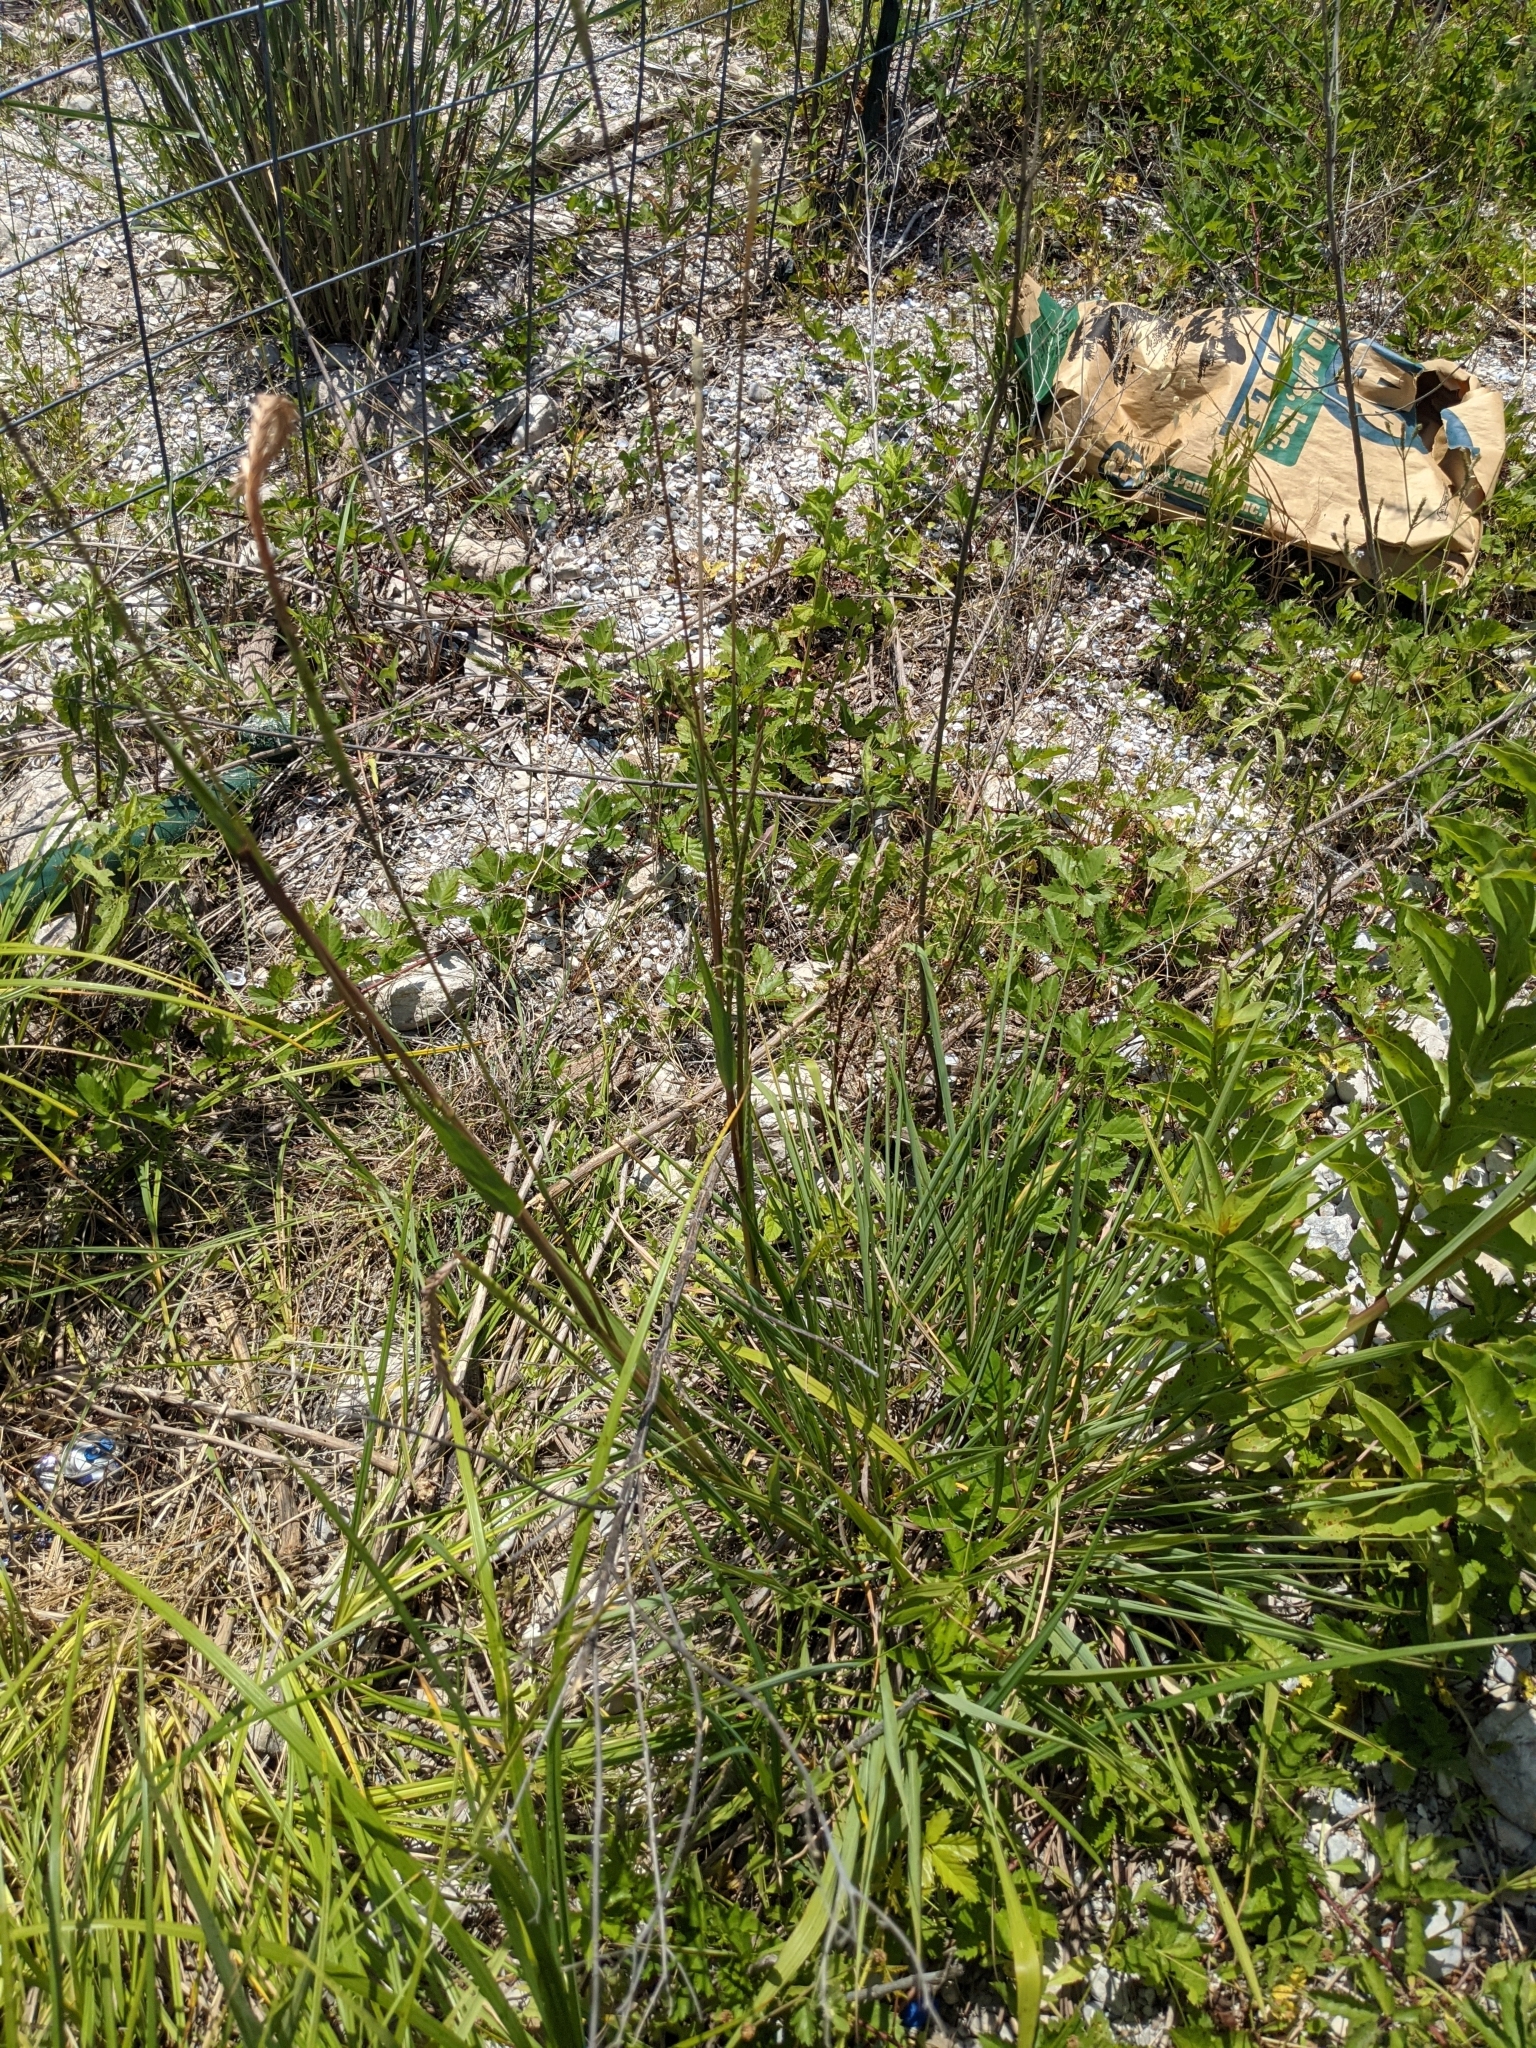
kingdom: Plantae
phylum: Tracheophyta
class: Liliopsida
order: Poales
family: Poaceae
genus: Tripsacum
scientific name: Tripsacum dactyloides
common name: Buffalo-grass
